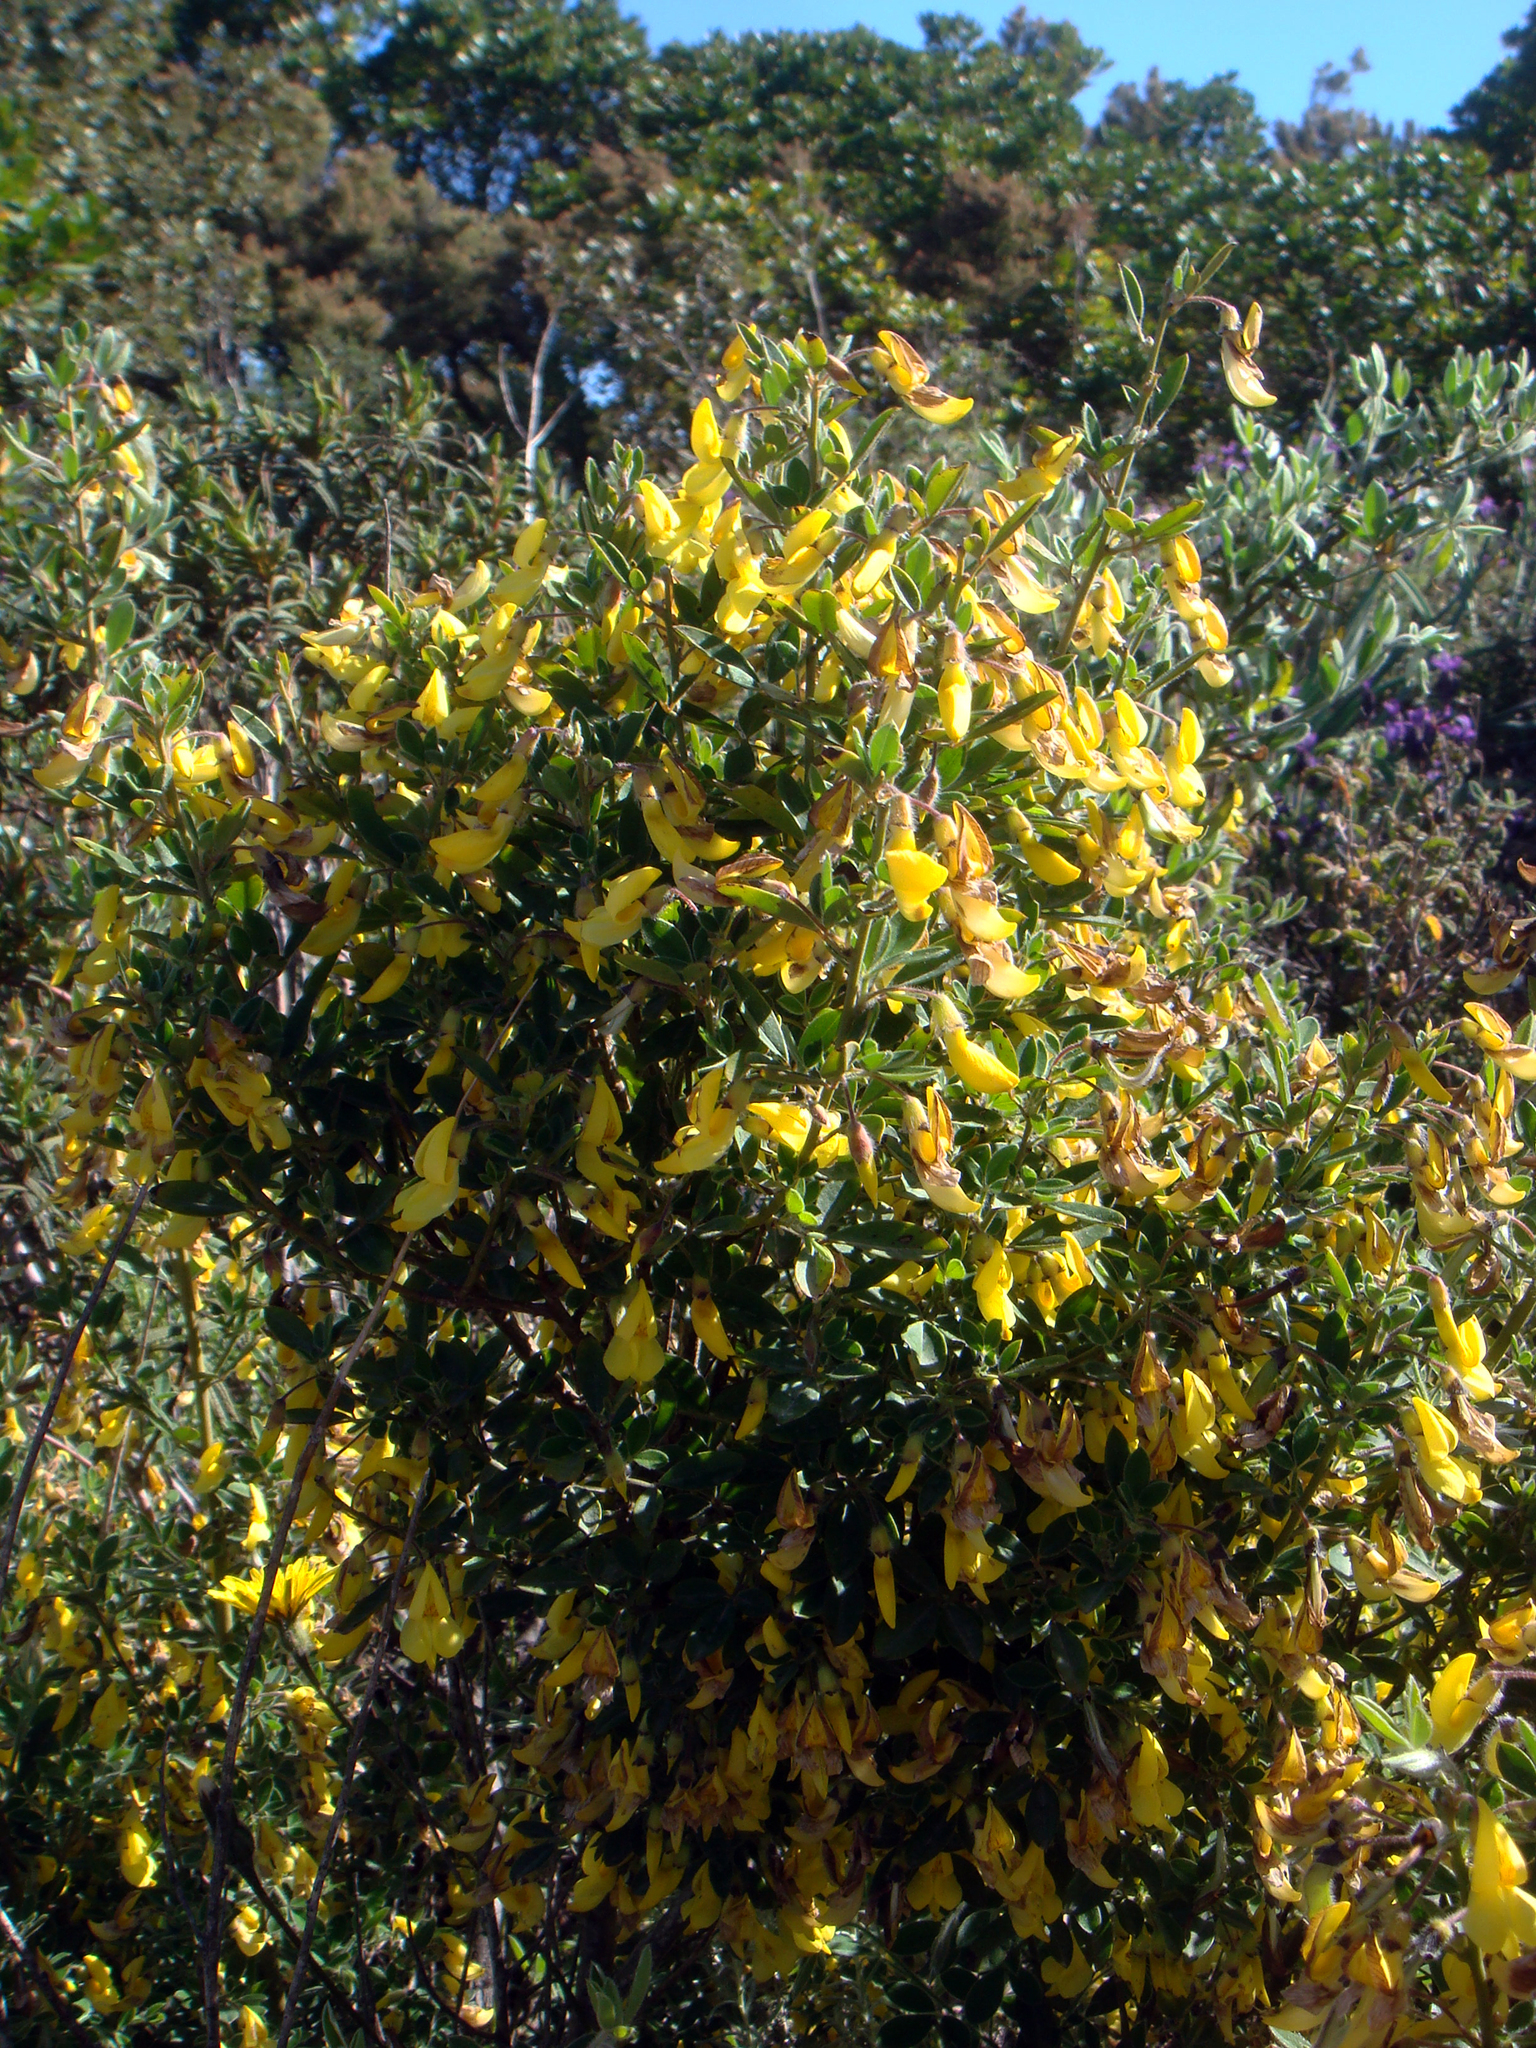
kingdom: Plantae
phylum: Tracheophyta
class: Magnoliopsida
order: Fabales
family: Fabaceae
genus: Cytisus
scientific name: Cytisus villosus
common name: Hairybroom
